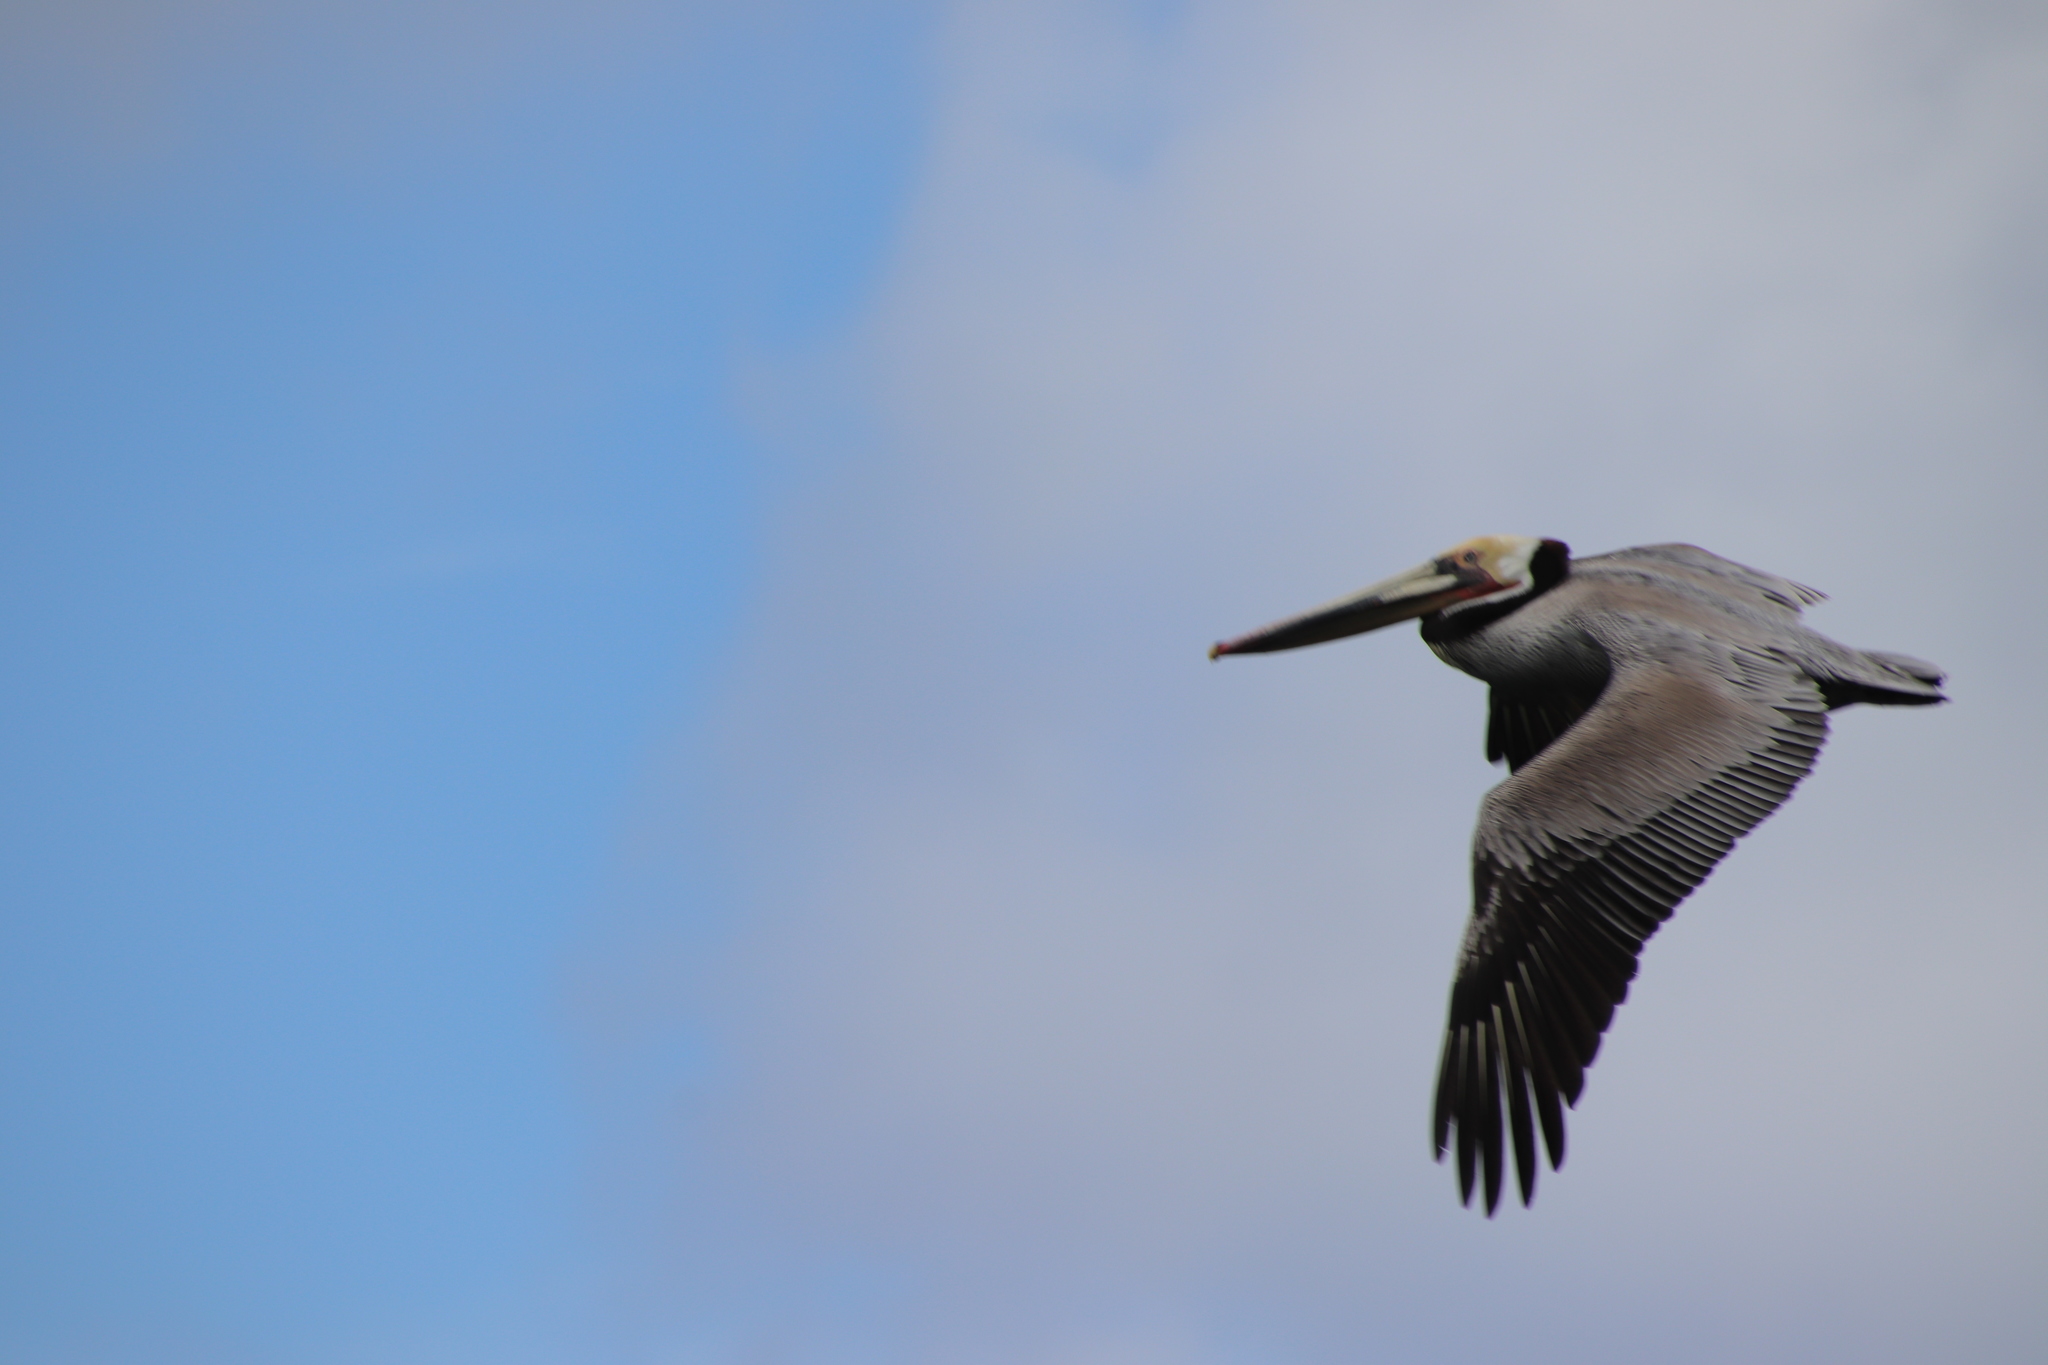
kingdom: Animalia
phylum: Chordata
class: Aves
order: Pelecaniformes
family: Pelecanidae
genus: Pelecanus
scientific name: Pelecanus occidentalis
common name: Brown pelican
